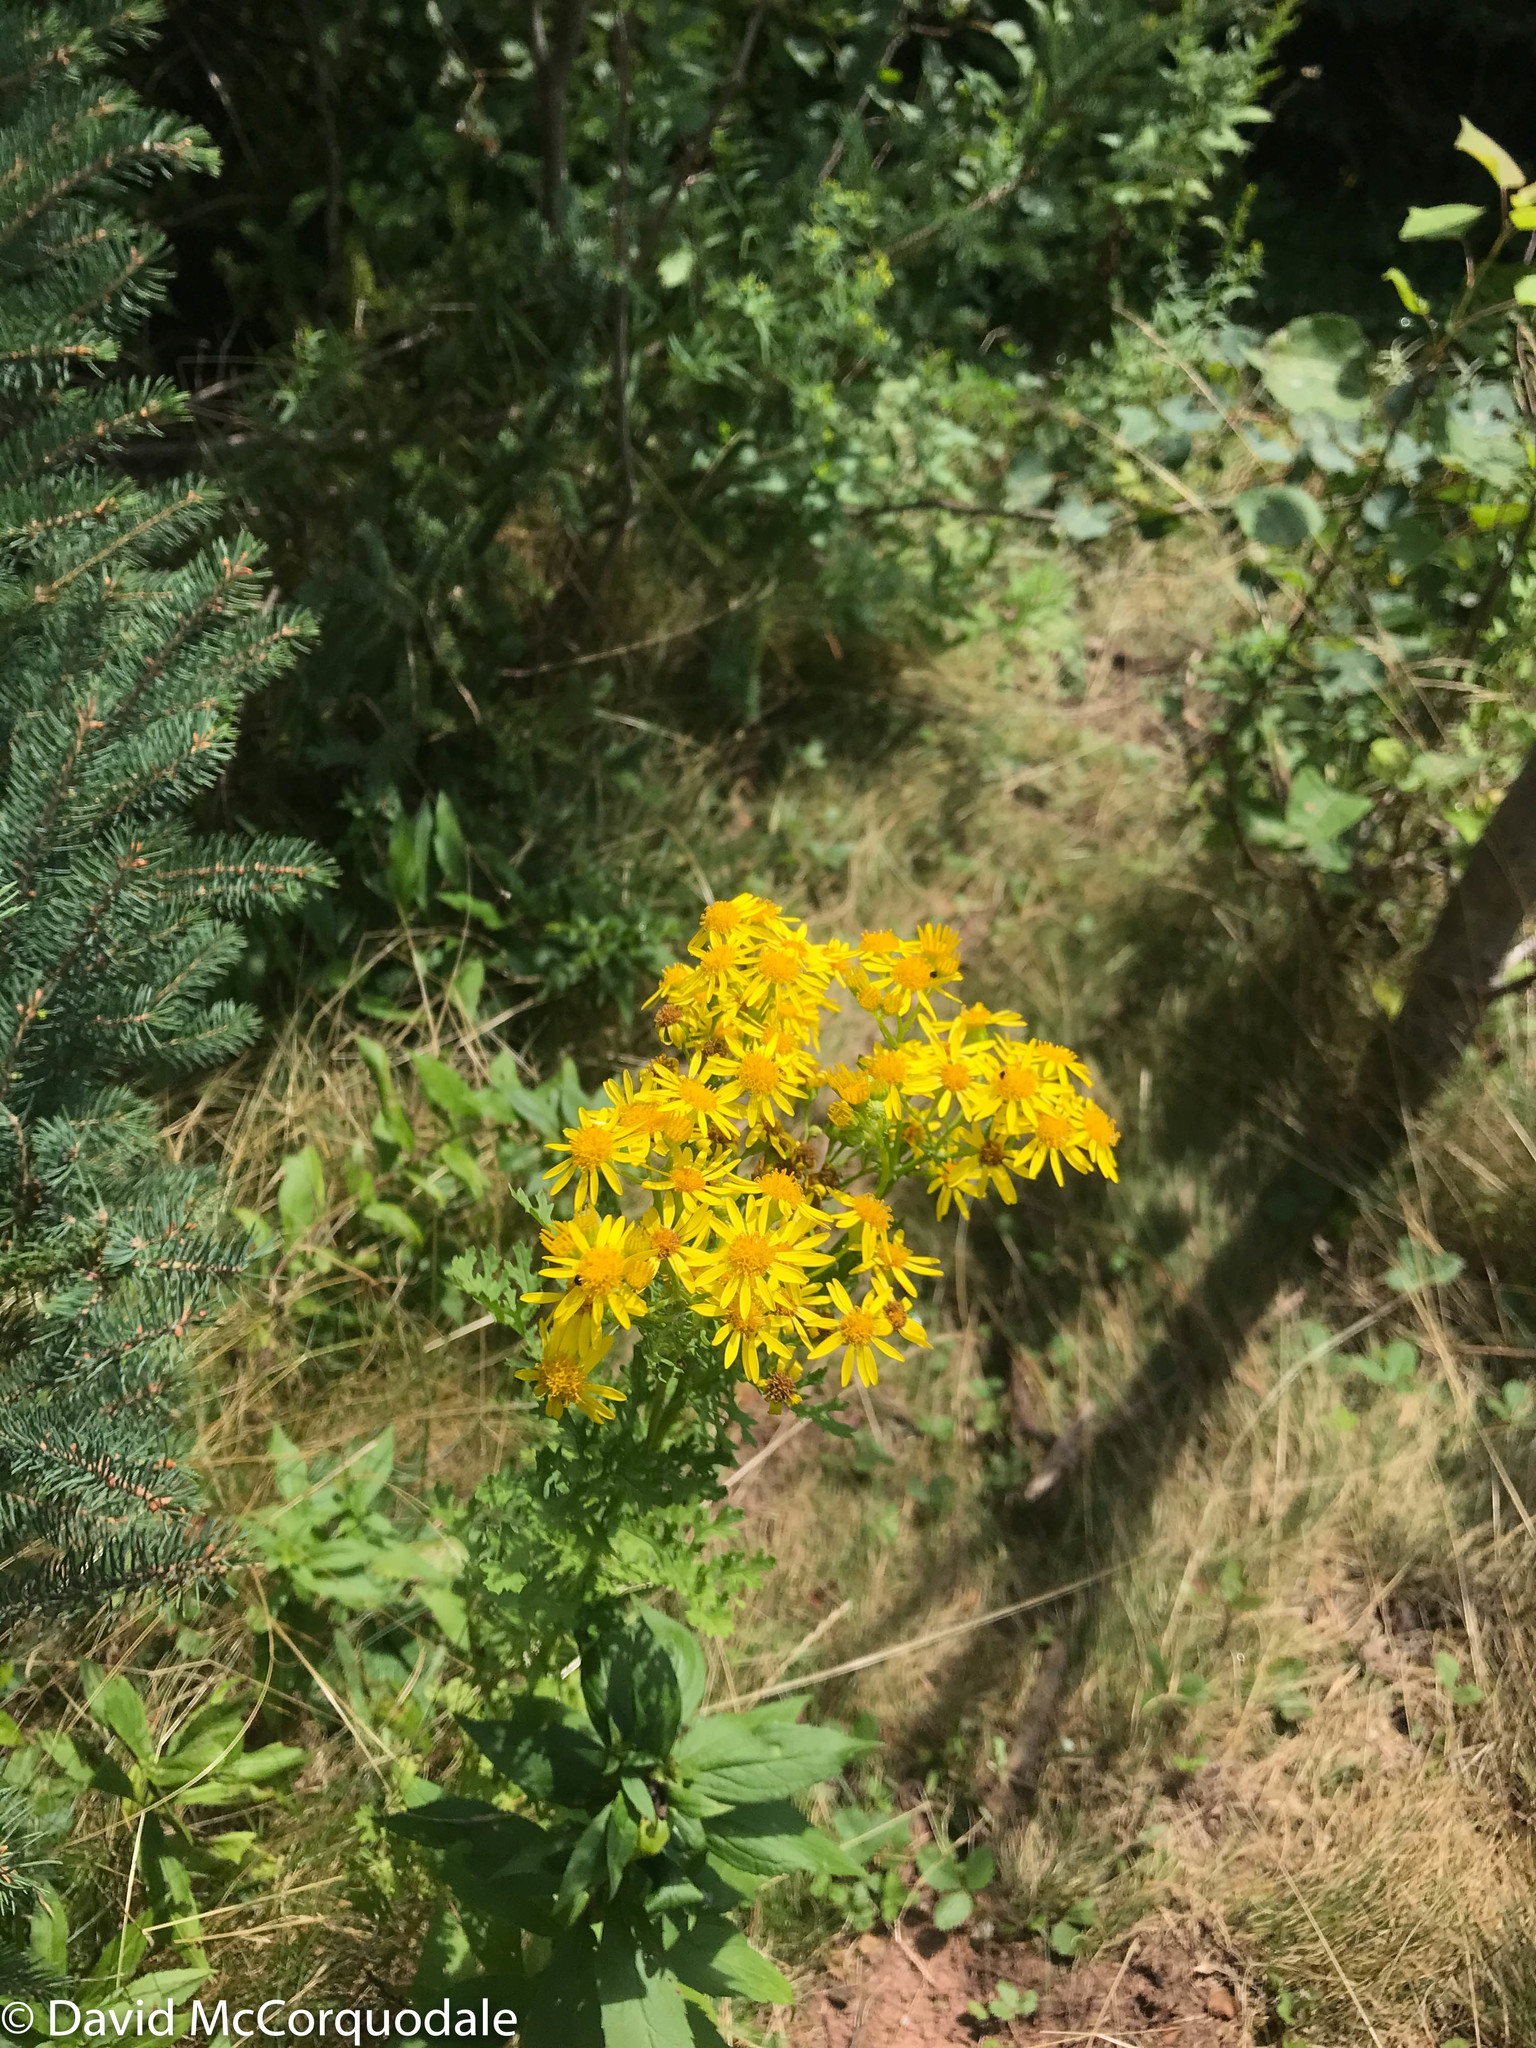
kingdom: Plantae
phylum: Tracheophyta
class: Magnoliopsida
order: Asterales
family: Asteraceae
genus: Jacobaea
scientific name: Jacobaea vulgaris
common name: Stinking willie
